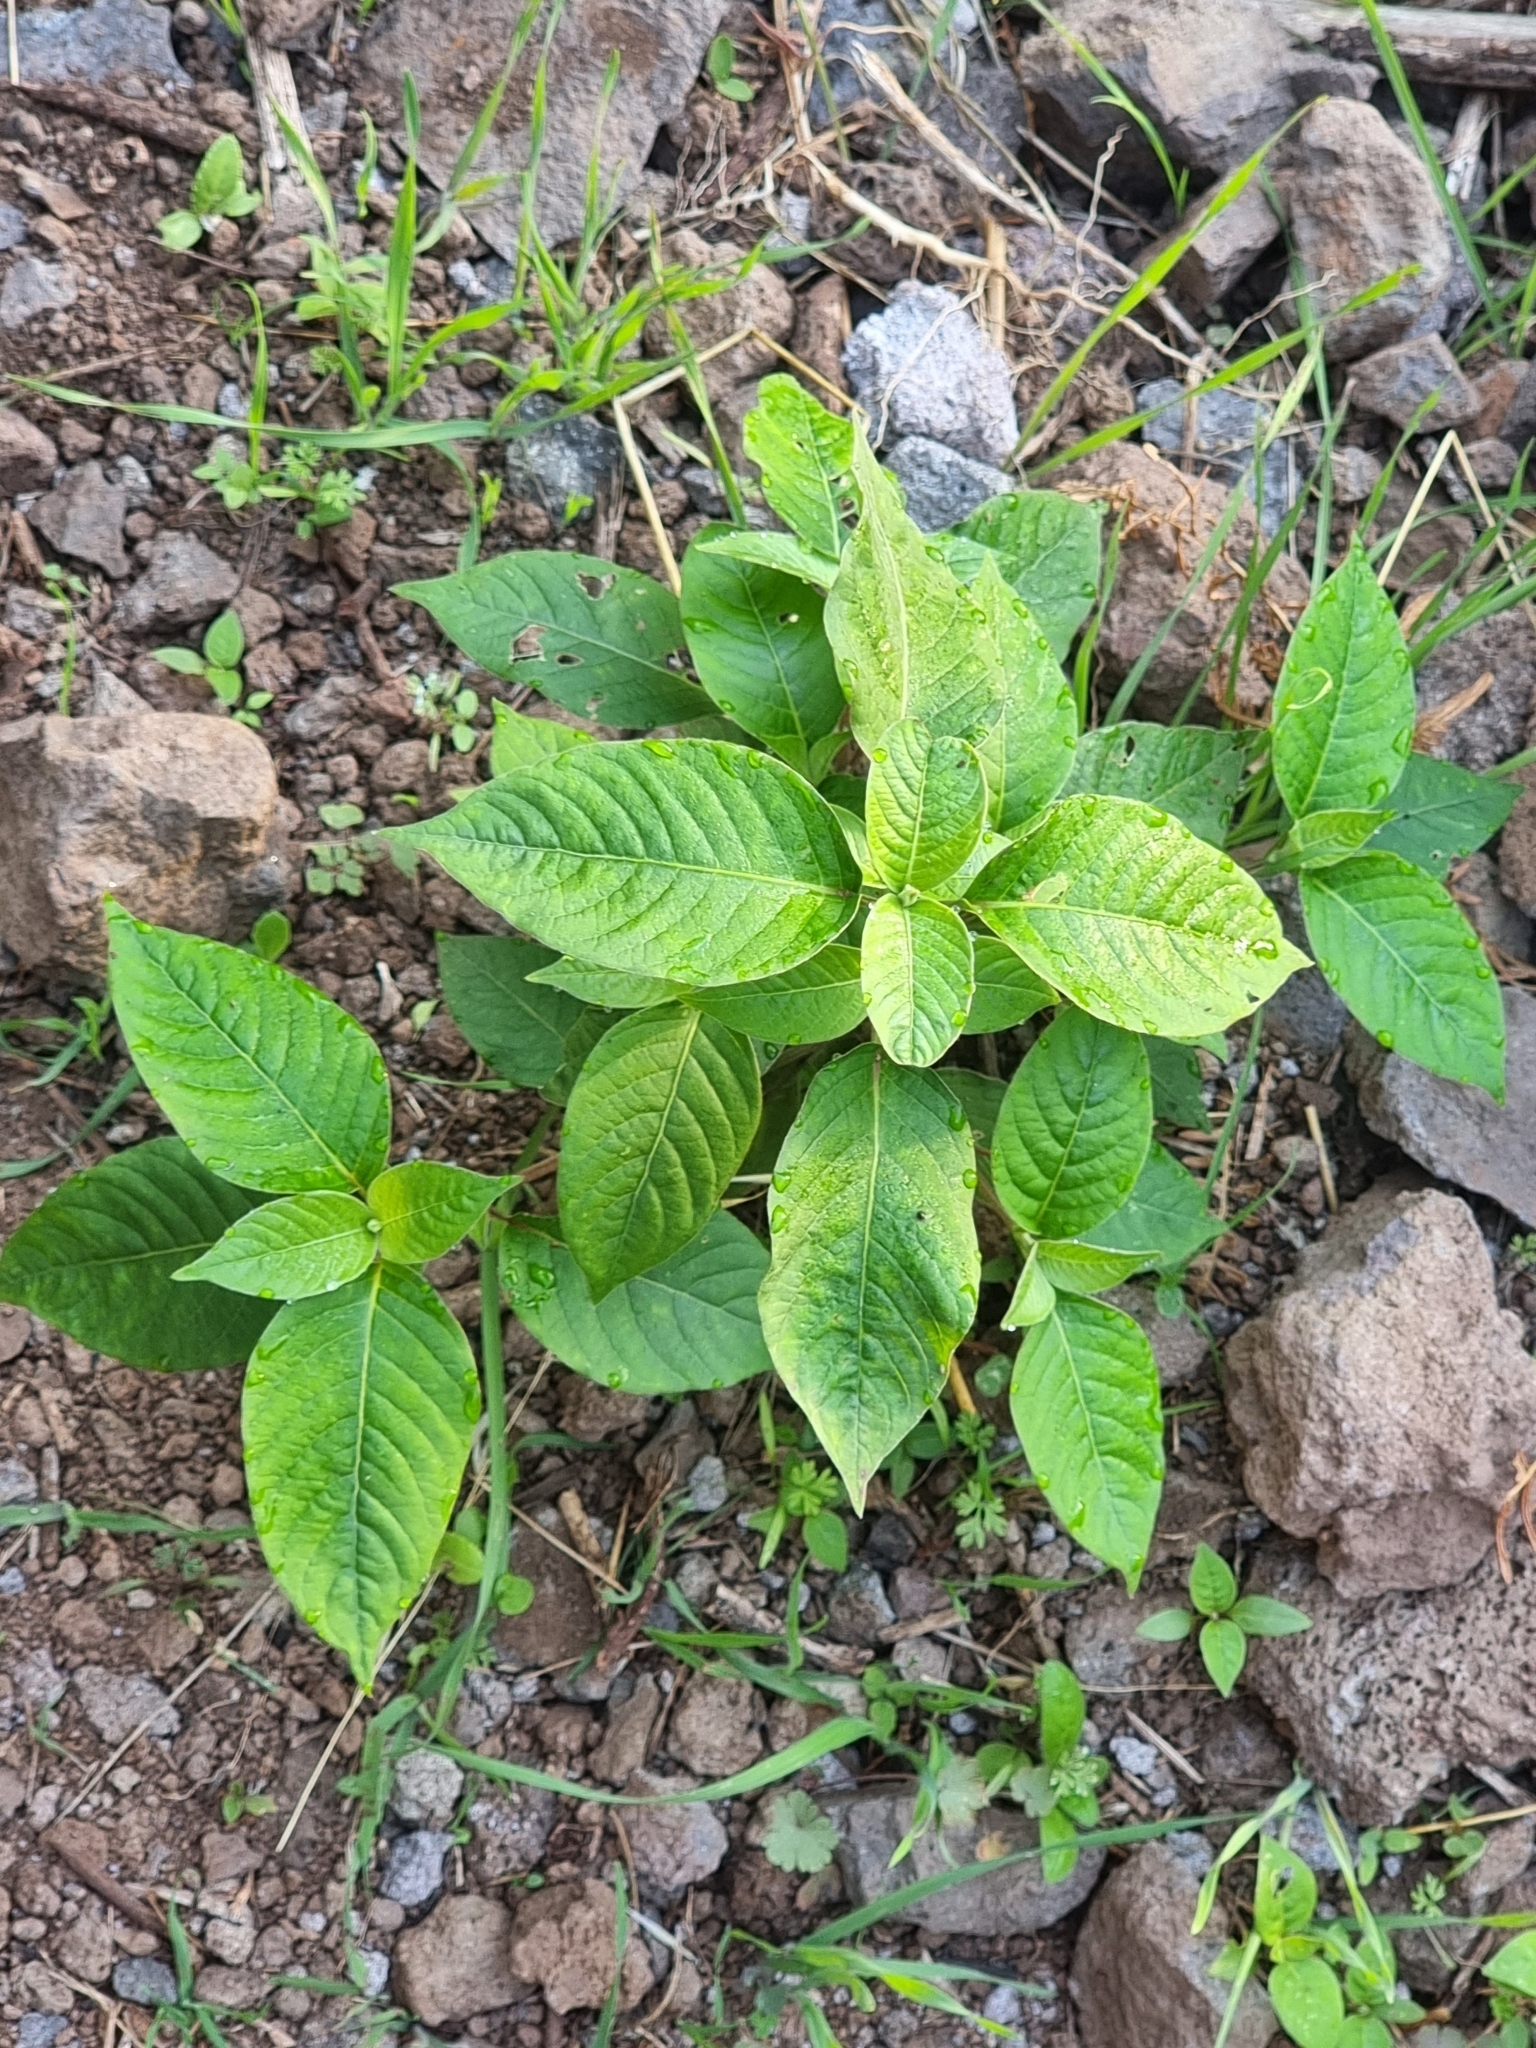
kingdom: Plantae
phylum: Tracheophyta
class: Magnoliopsida
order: Caryophyllales
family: Amaranthaceae
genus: Achyranthes
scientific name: Achyranthes aspera
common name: Devil's horsewhip
